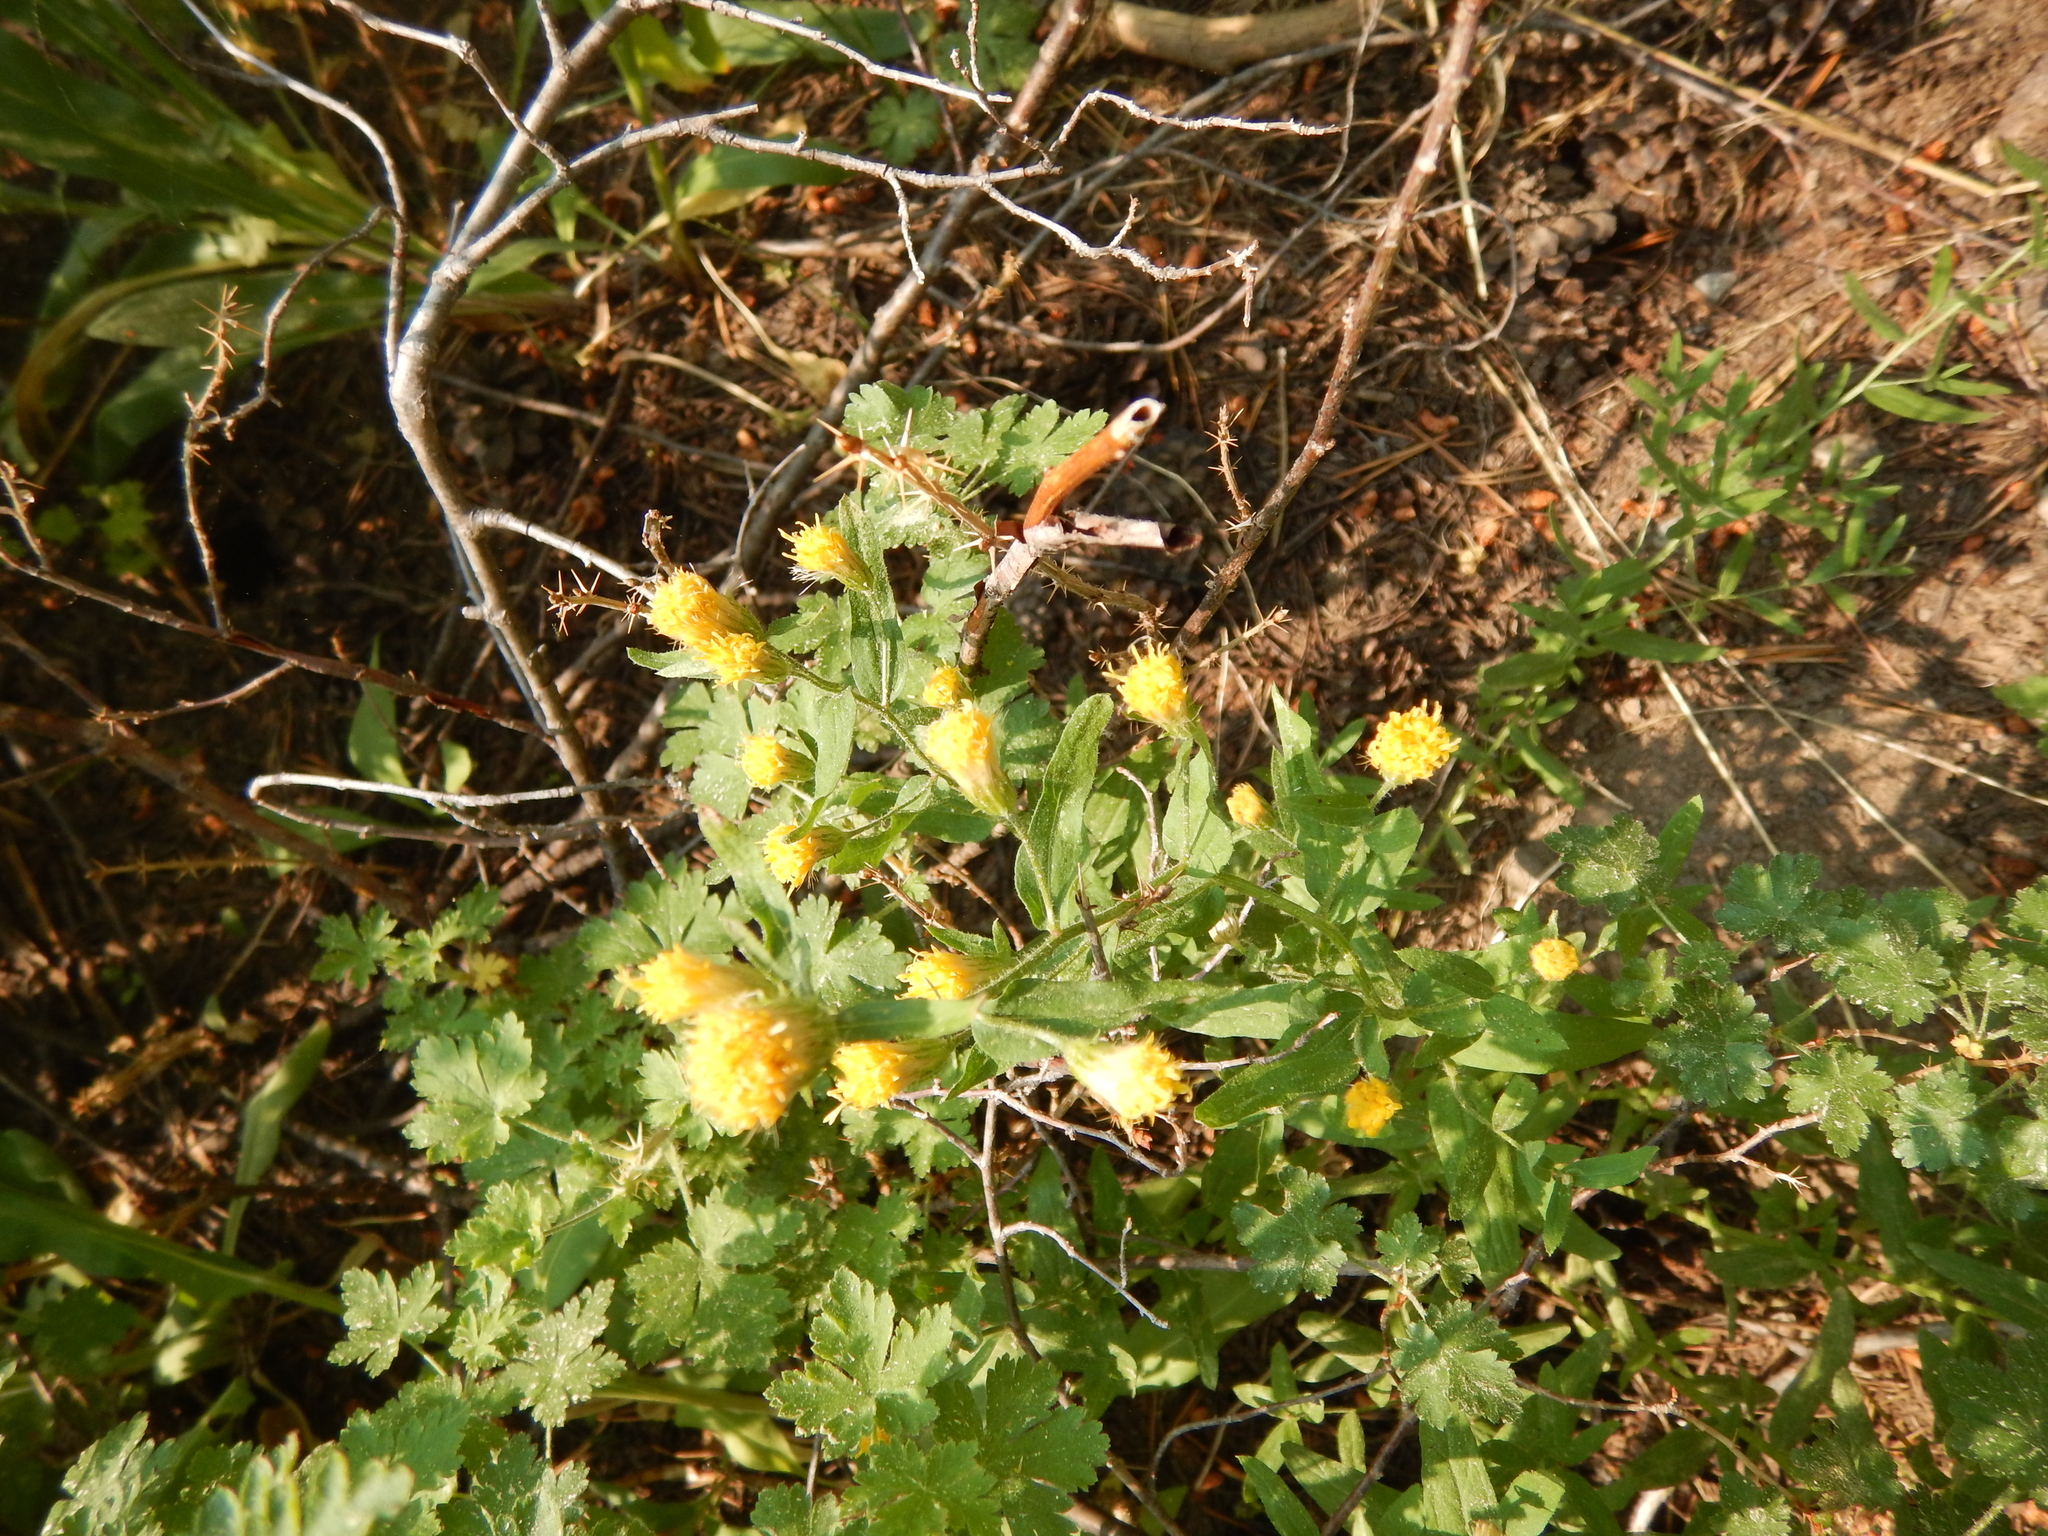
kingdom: Plantae
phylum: Tracheophyta
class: Magnoliopsida
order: Asterales
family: Asteraceae
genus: Eucephalus
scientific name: Eucephalus breweri
